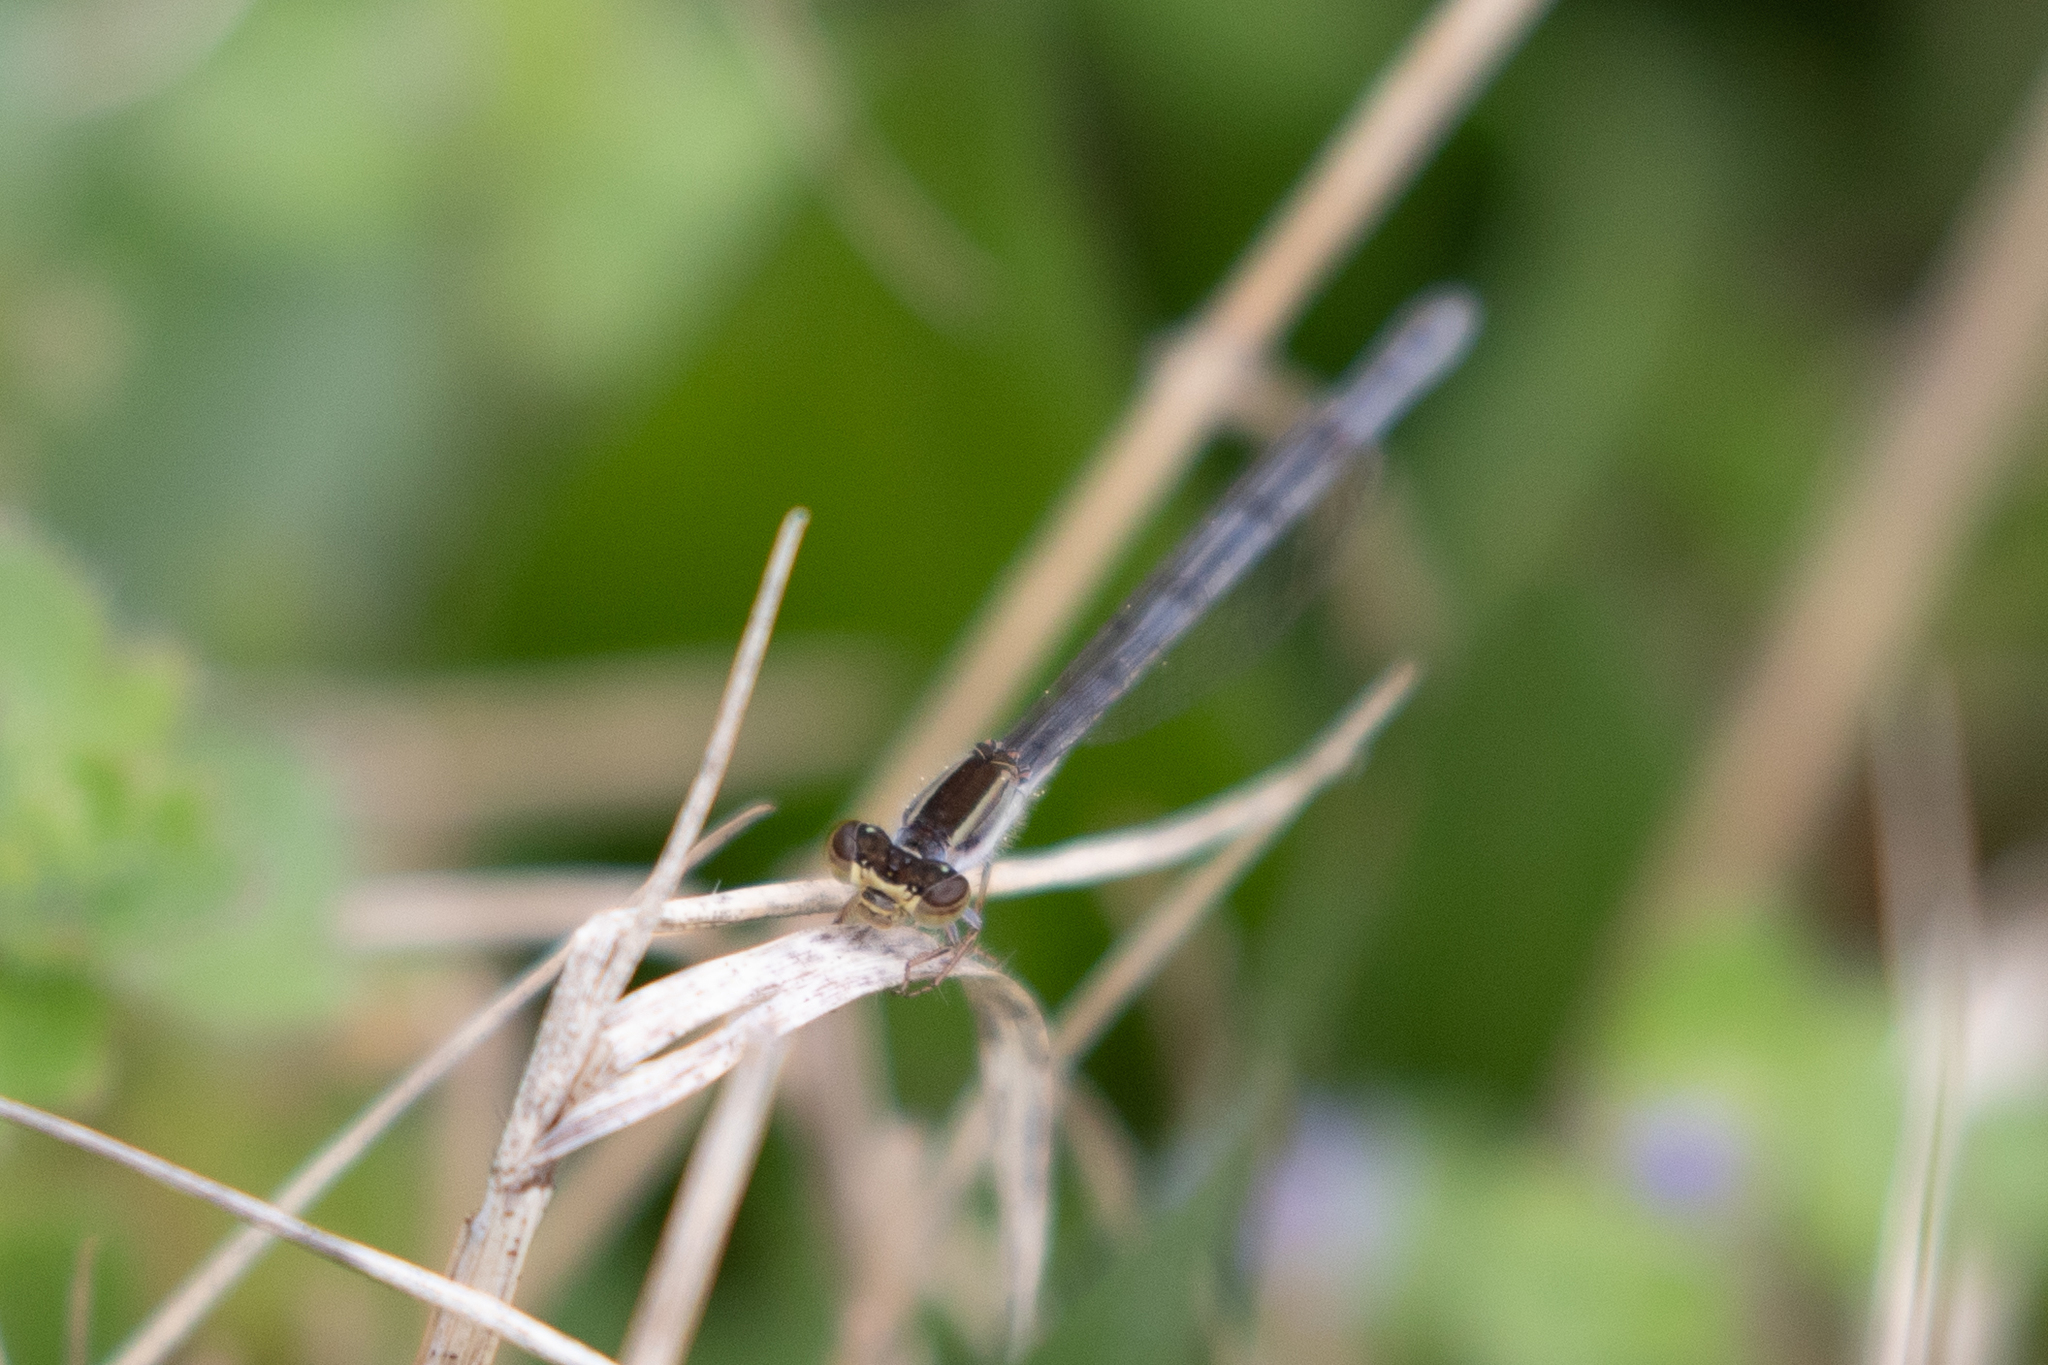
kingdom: Animalia
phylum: Arthropoda
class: Insecta
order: Odonata
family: Coenagrionidae
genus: Ischnura
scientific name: Ischnura hastata
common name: Citrine forktail
